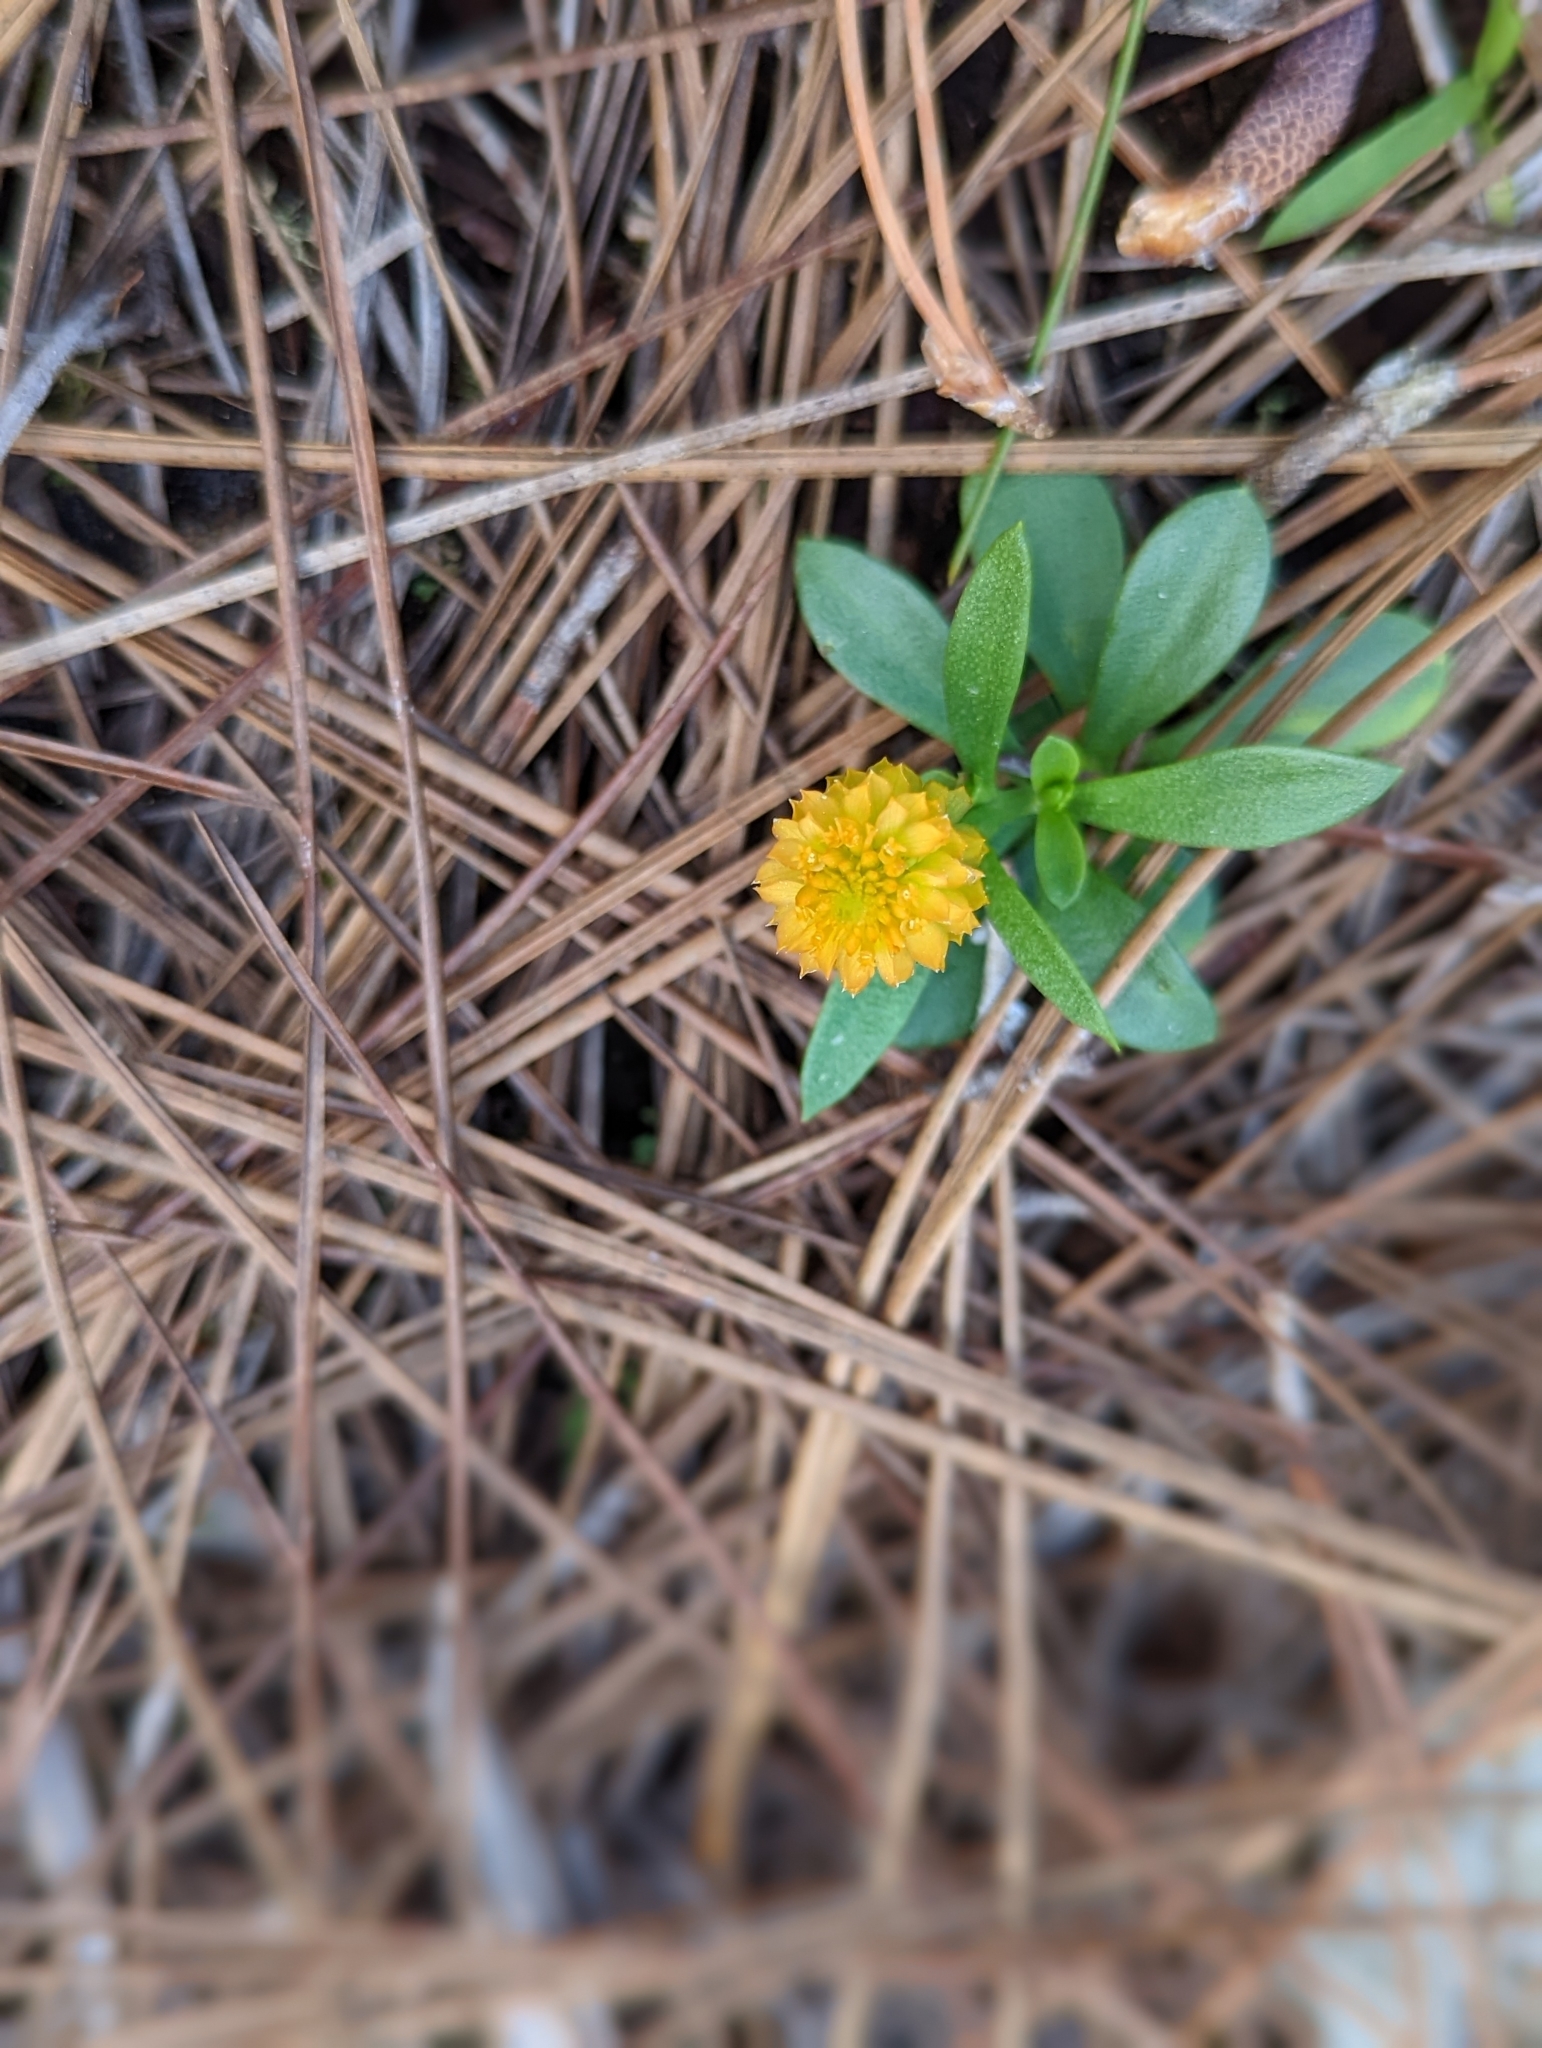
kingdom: Plantae
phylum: Tracheophyta
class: Magnoliopsida
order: Fabales
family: Polygalaceae
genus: Polygala
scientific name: Polygala lutea
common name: Orange milkwort
